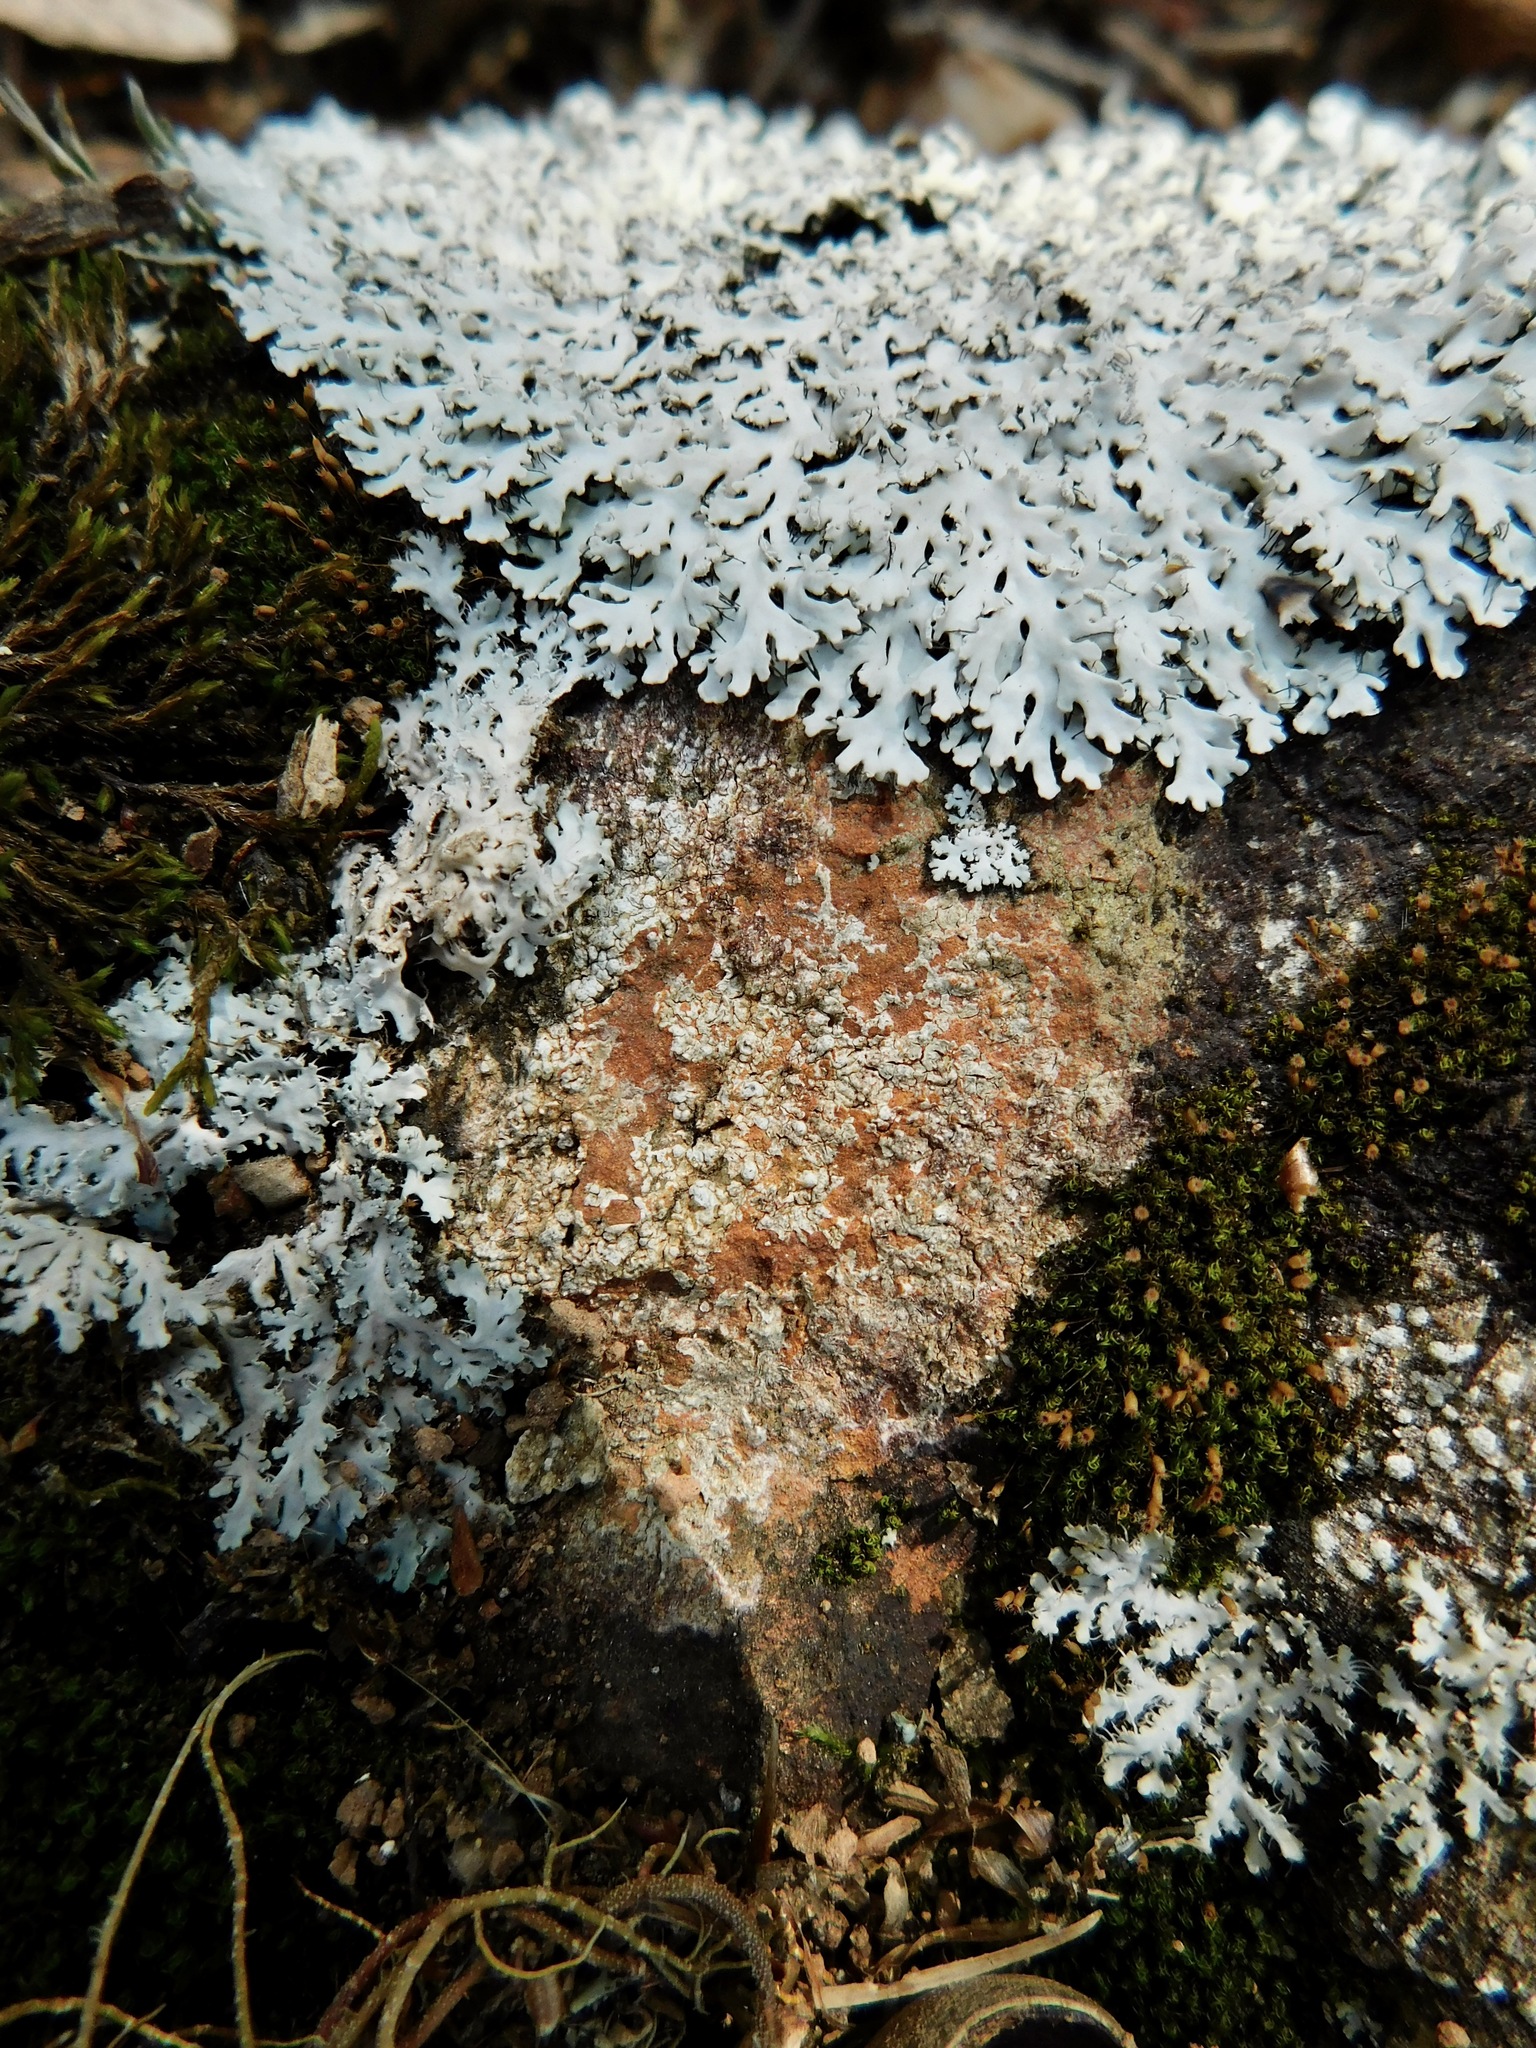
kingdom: Fungi
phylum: Ascomycota
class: Lecanoromycetes
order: Pertusariales
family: Megasporaceae
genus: Aspicilia
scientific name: Aspicilia laevata
